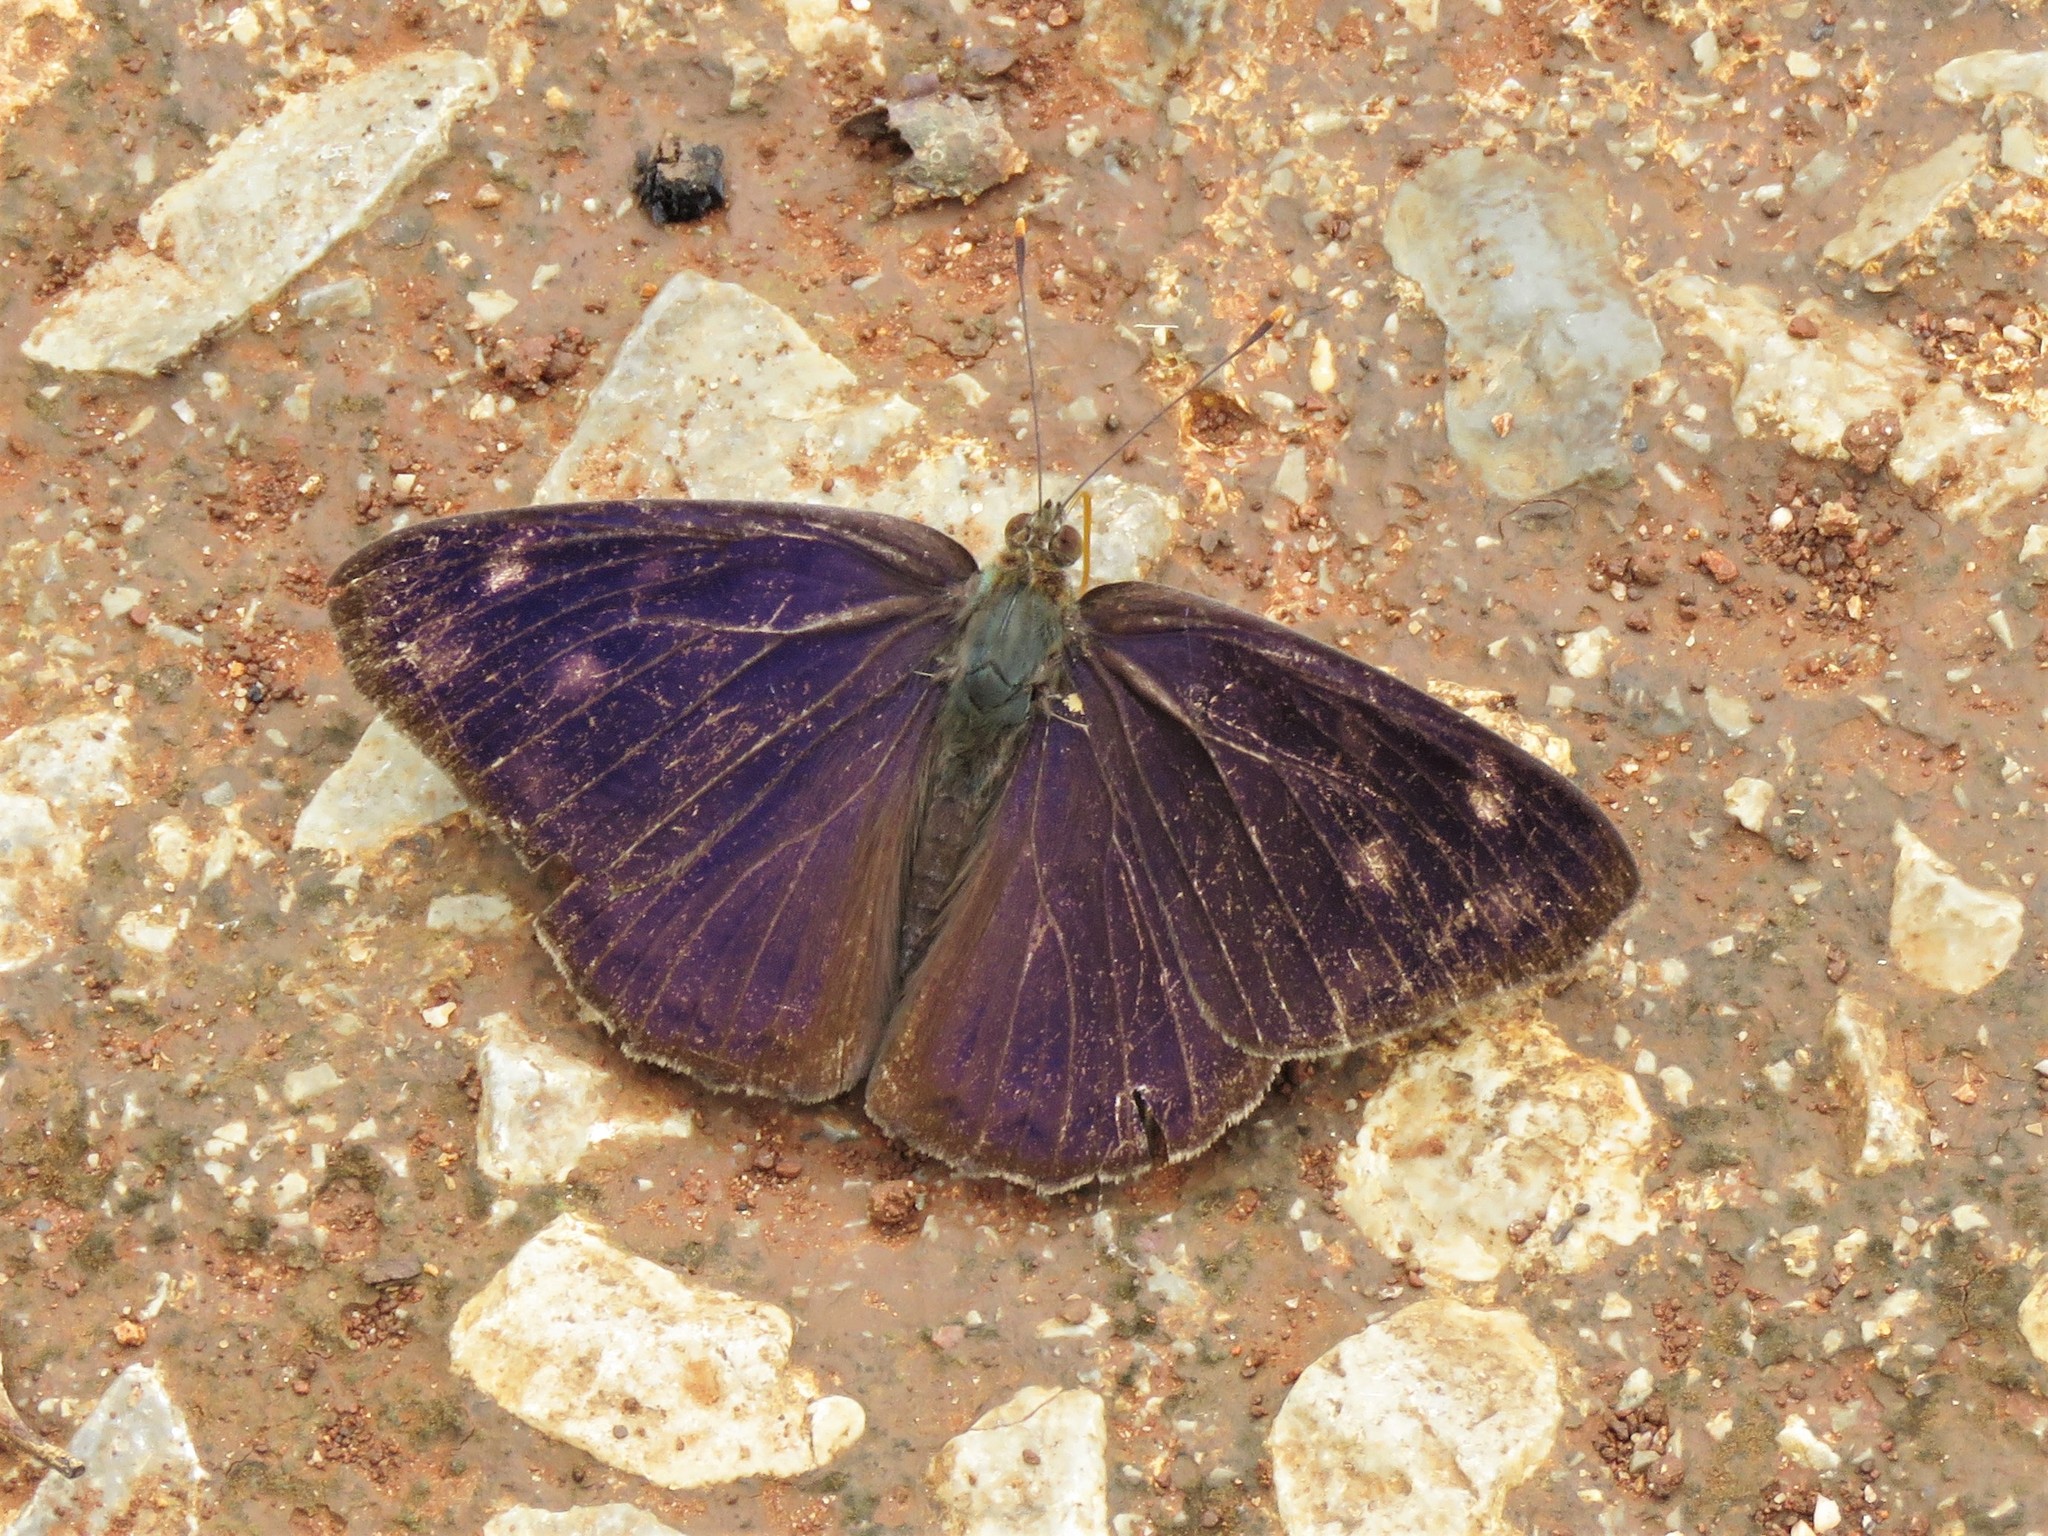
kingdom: Animalia
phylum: Arthropoda
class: Insecta
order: Lepidoptera
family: Nymphalidae
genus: Eunica
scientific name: Eunica monima
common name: Dingy purplewing
